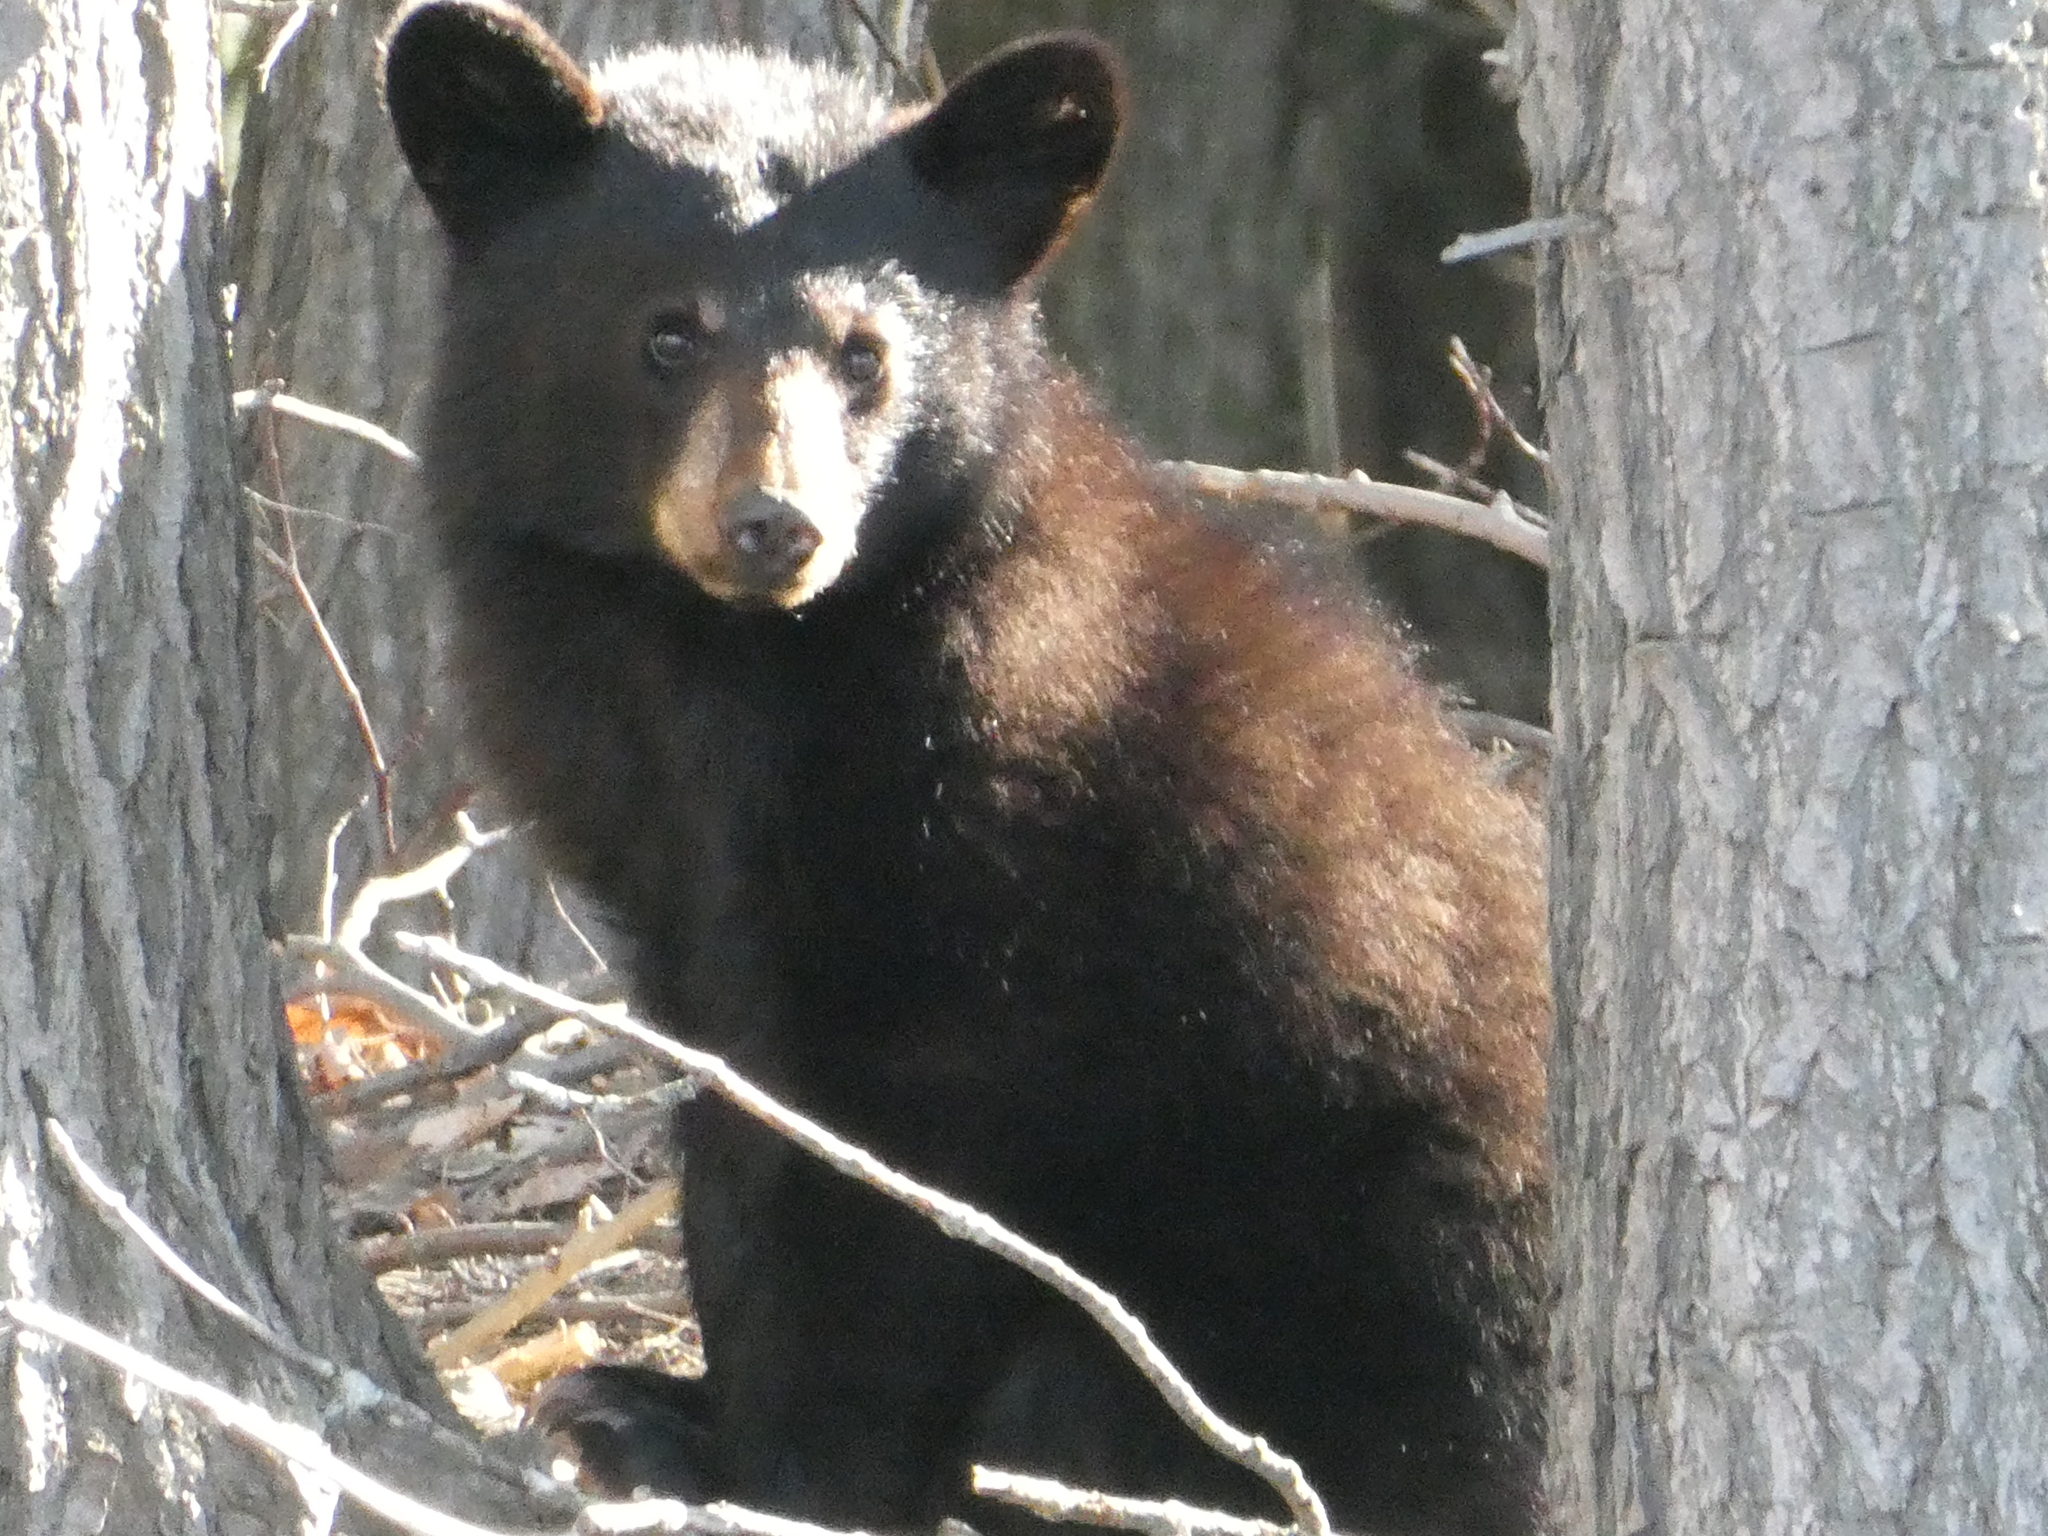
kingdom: Animalia
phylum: Chordata
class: Mammalia
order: Carnivora
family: Ursidae
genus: Ursus
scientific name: Ursus americanus
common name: American black bear
